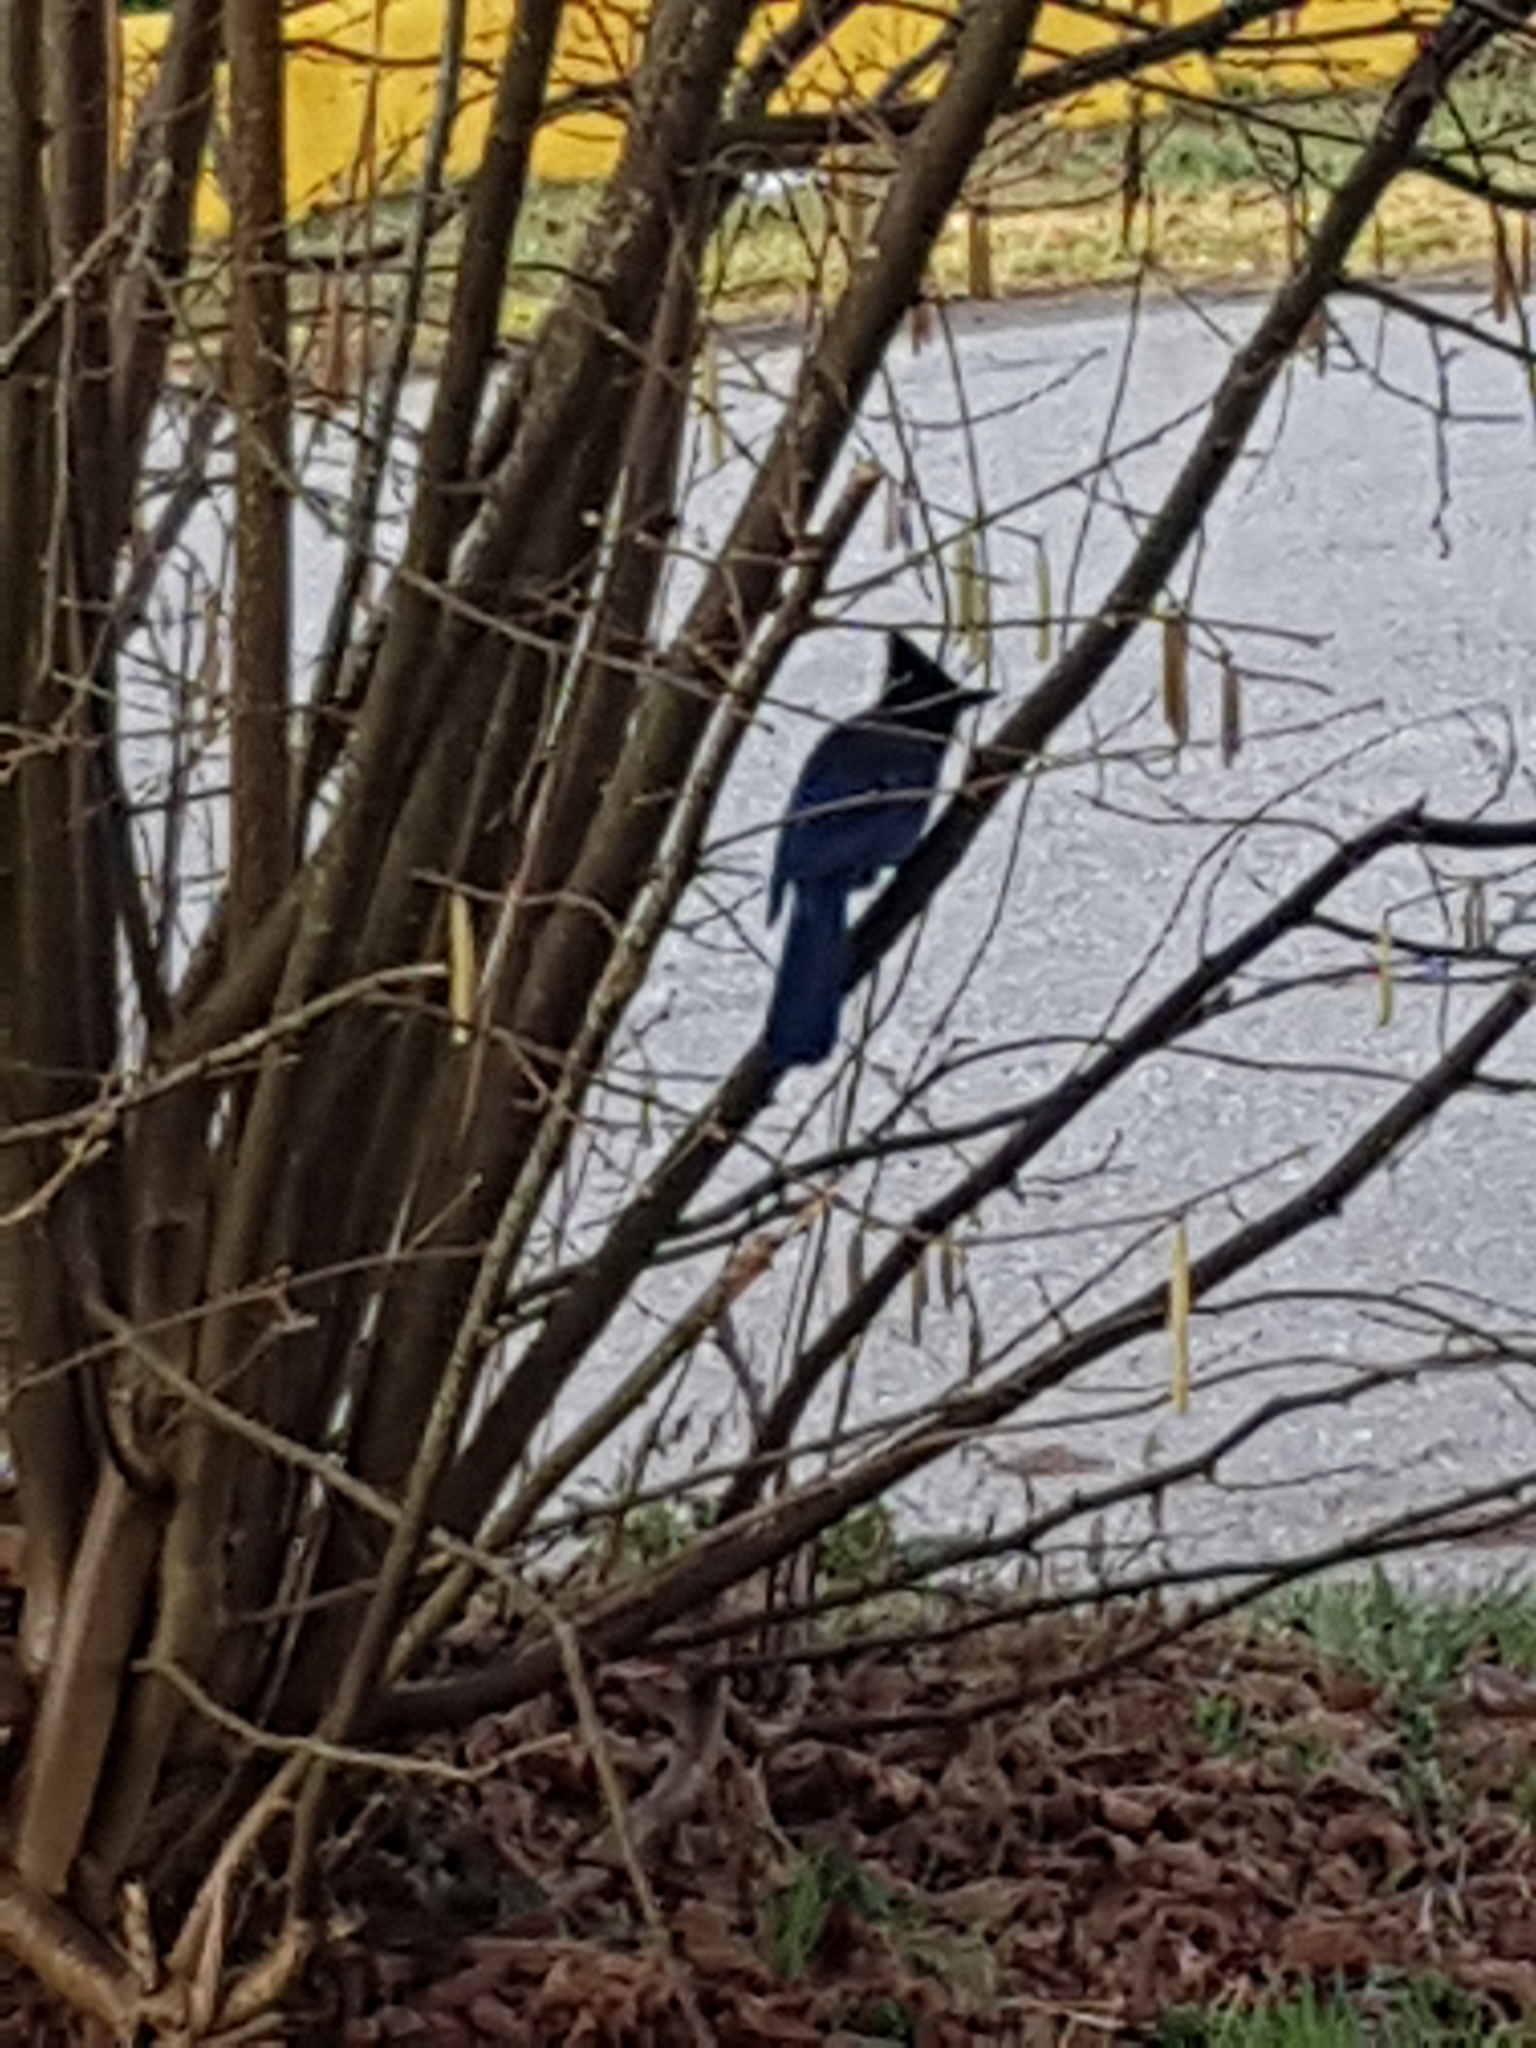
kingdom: Animalia
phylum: Chordata
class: Aves
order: Passeriformes
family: Corvidae
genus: Cyanocitta
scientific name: Cyanocitta stelleri
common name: Steller's jay
